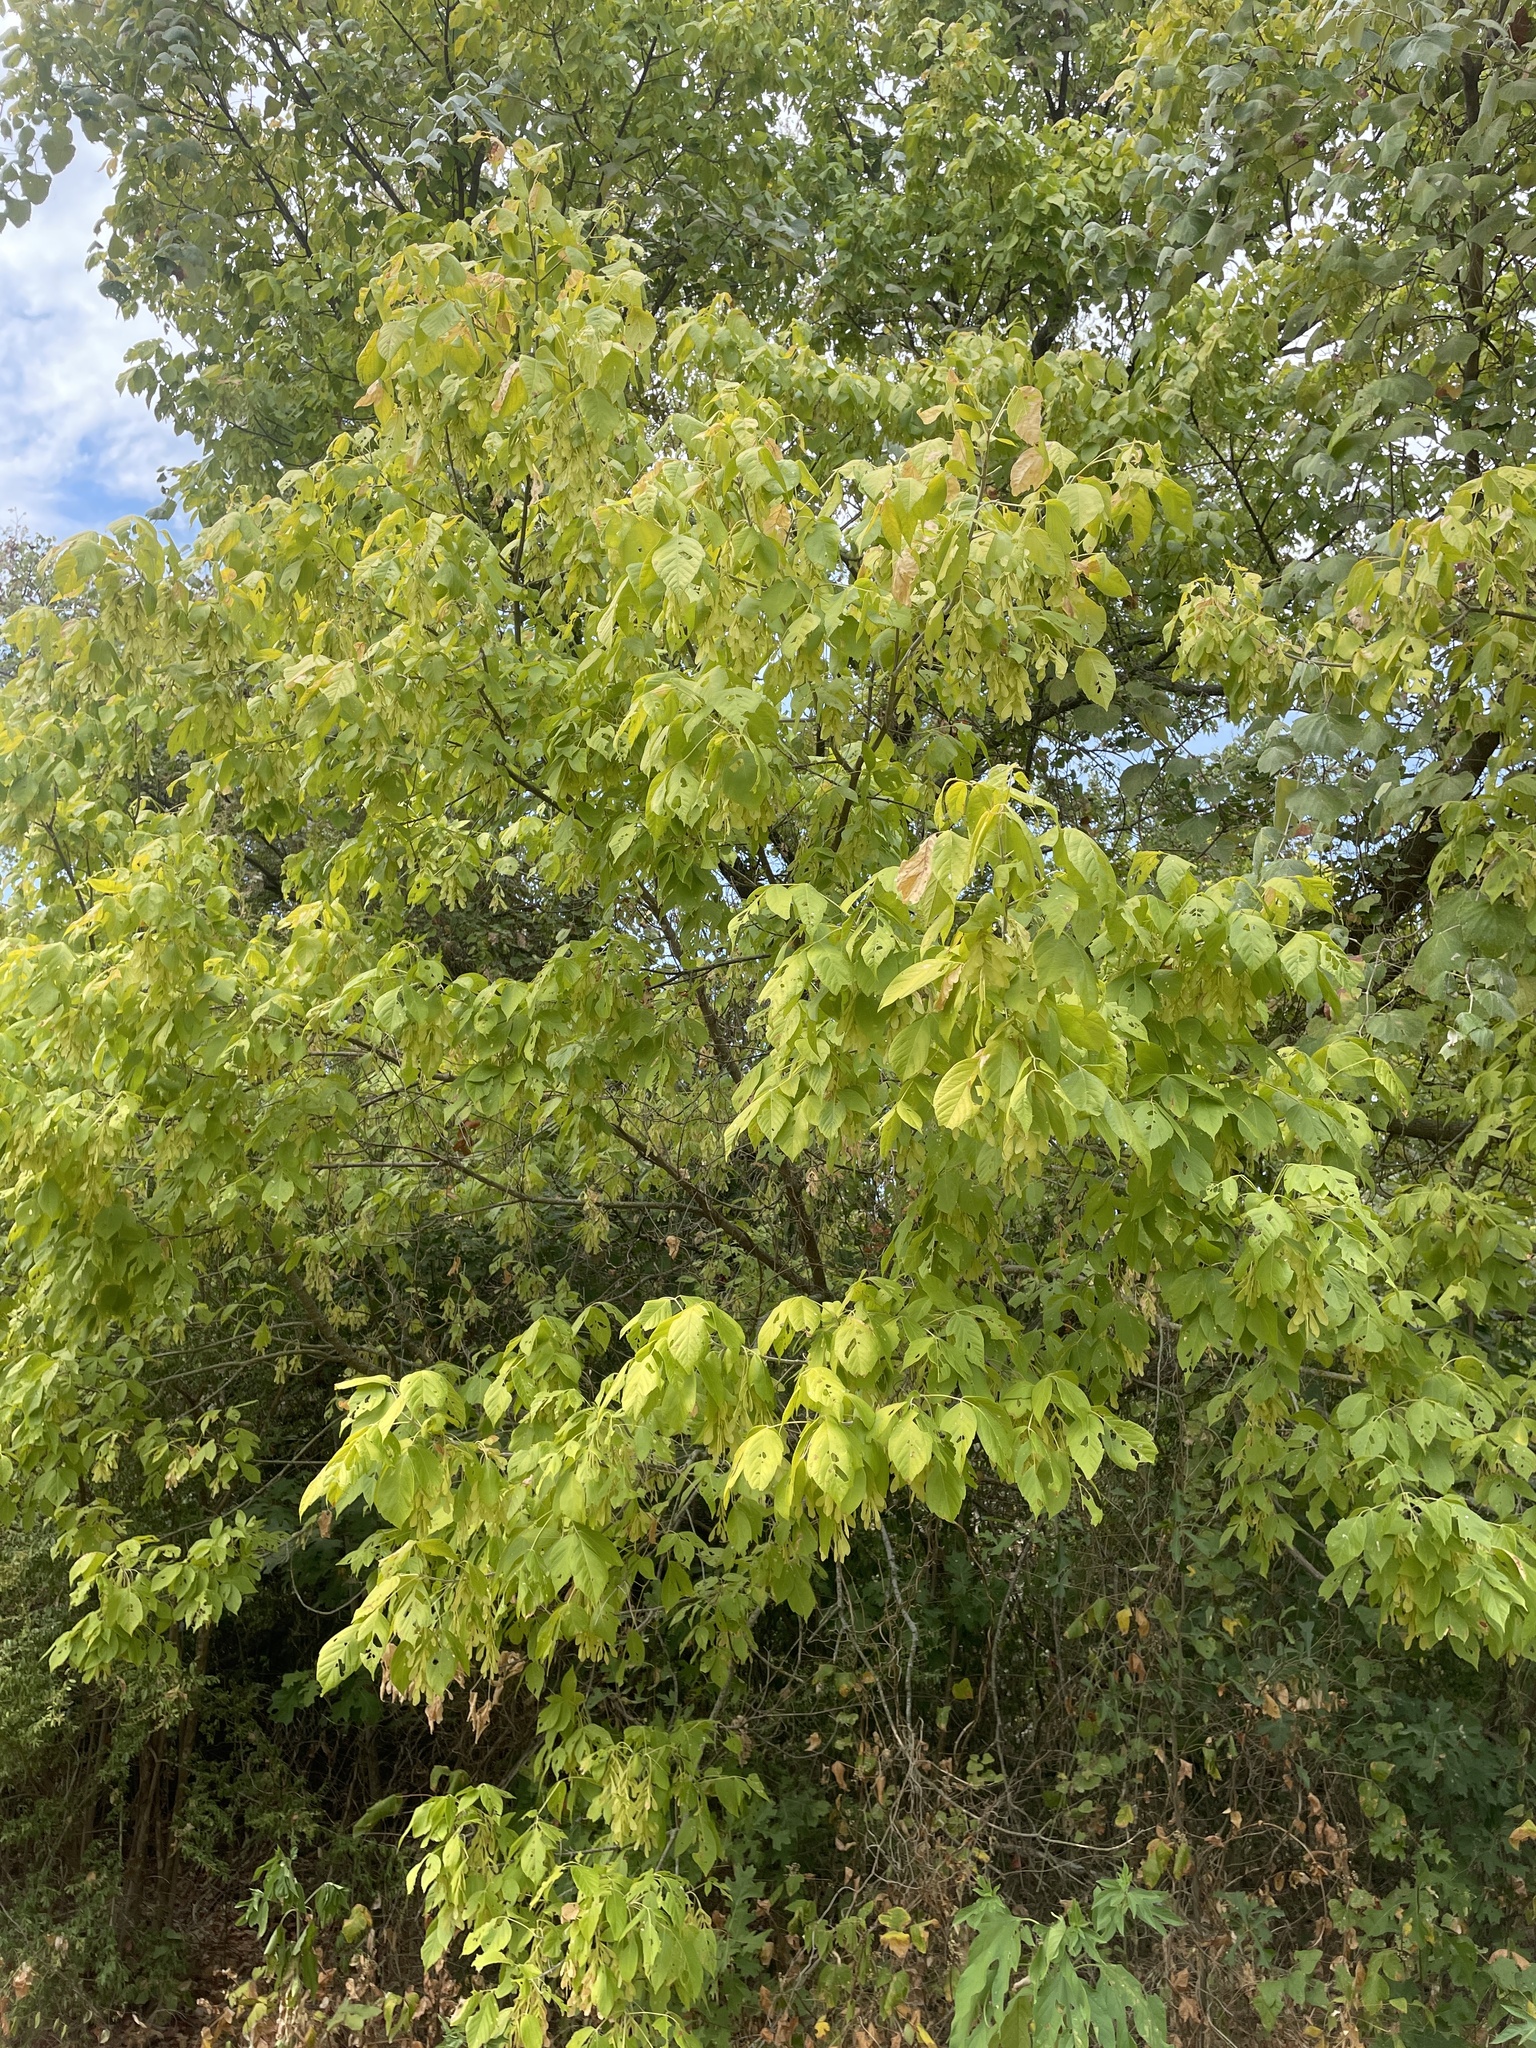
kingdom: Plantae
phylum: Tracheophyta
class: Magnoliopsida
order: Sapindales
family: Sapindaceae
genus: Acer
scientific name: Acer negundo
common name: Ashleaf maple
